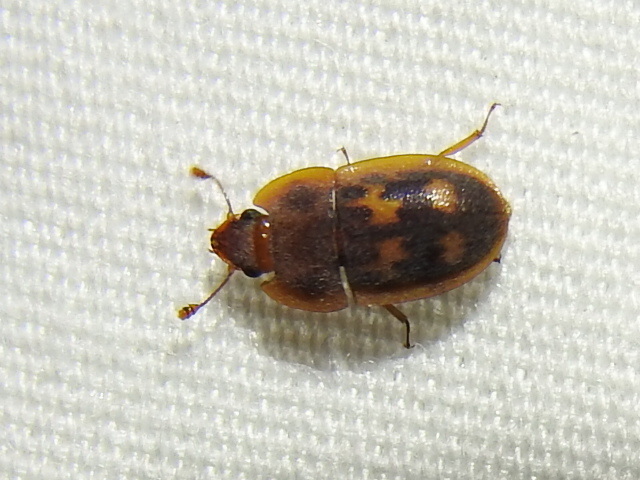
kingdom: Animalia
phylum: Arthropoda
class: Insecta
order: Coleoptera
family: Nitidulidae
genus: Prometopia
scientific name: Prometopia sexmaculata
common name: Six-spotted sap-feeding beetle
